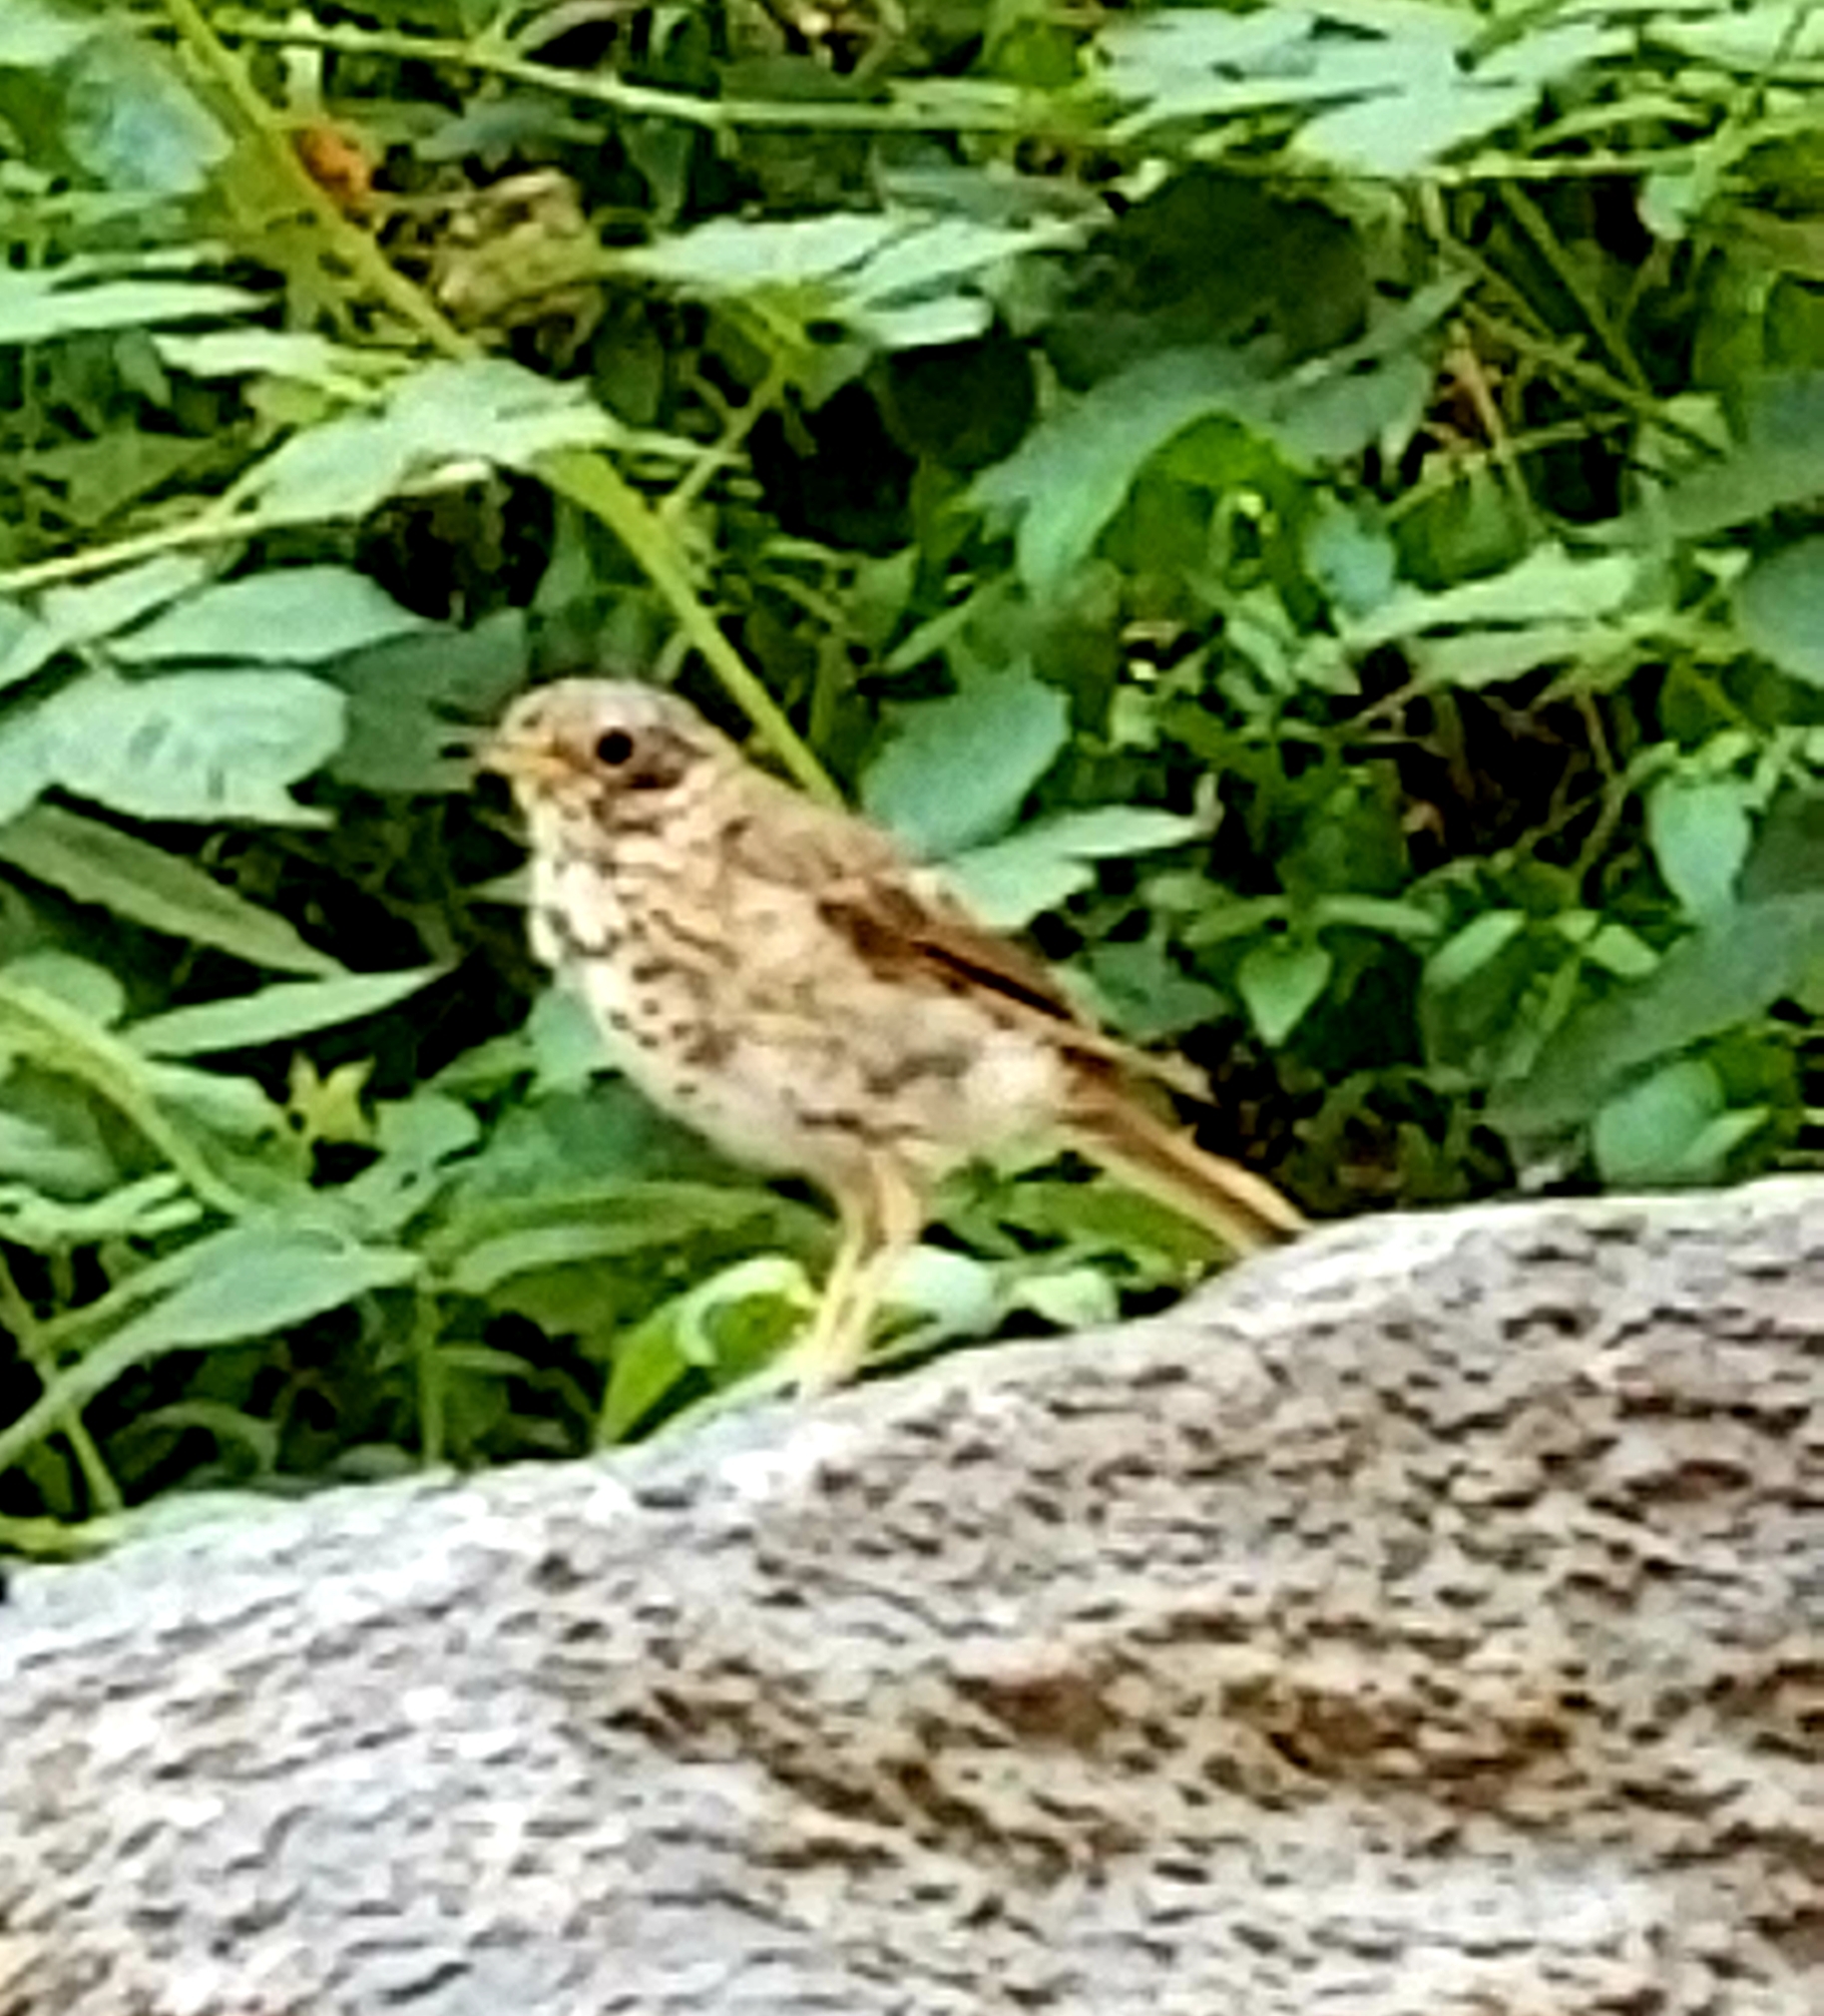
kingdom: Animalia
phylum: Chordata
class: Aves
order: Passeriformes
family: Turdidae
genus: Catharus
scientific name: Catharus guttatus
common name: Hermit thrush
